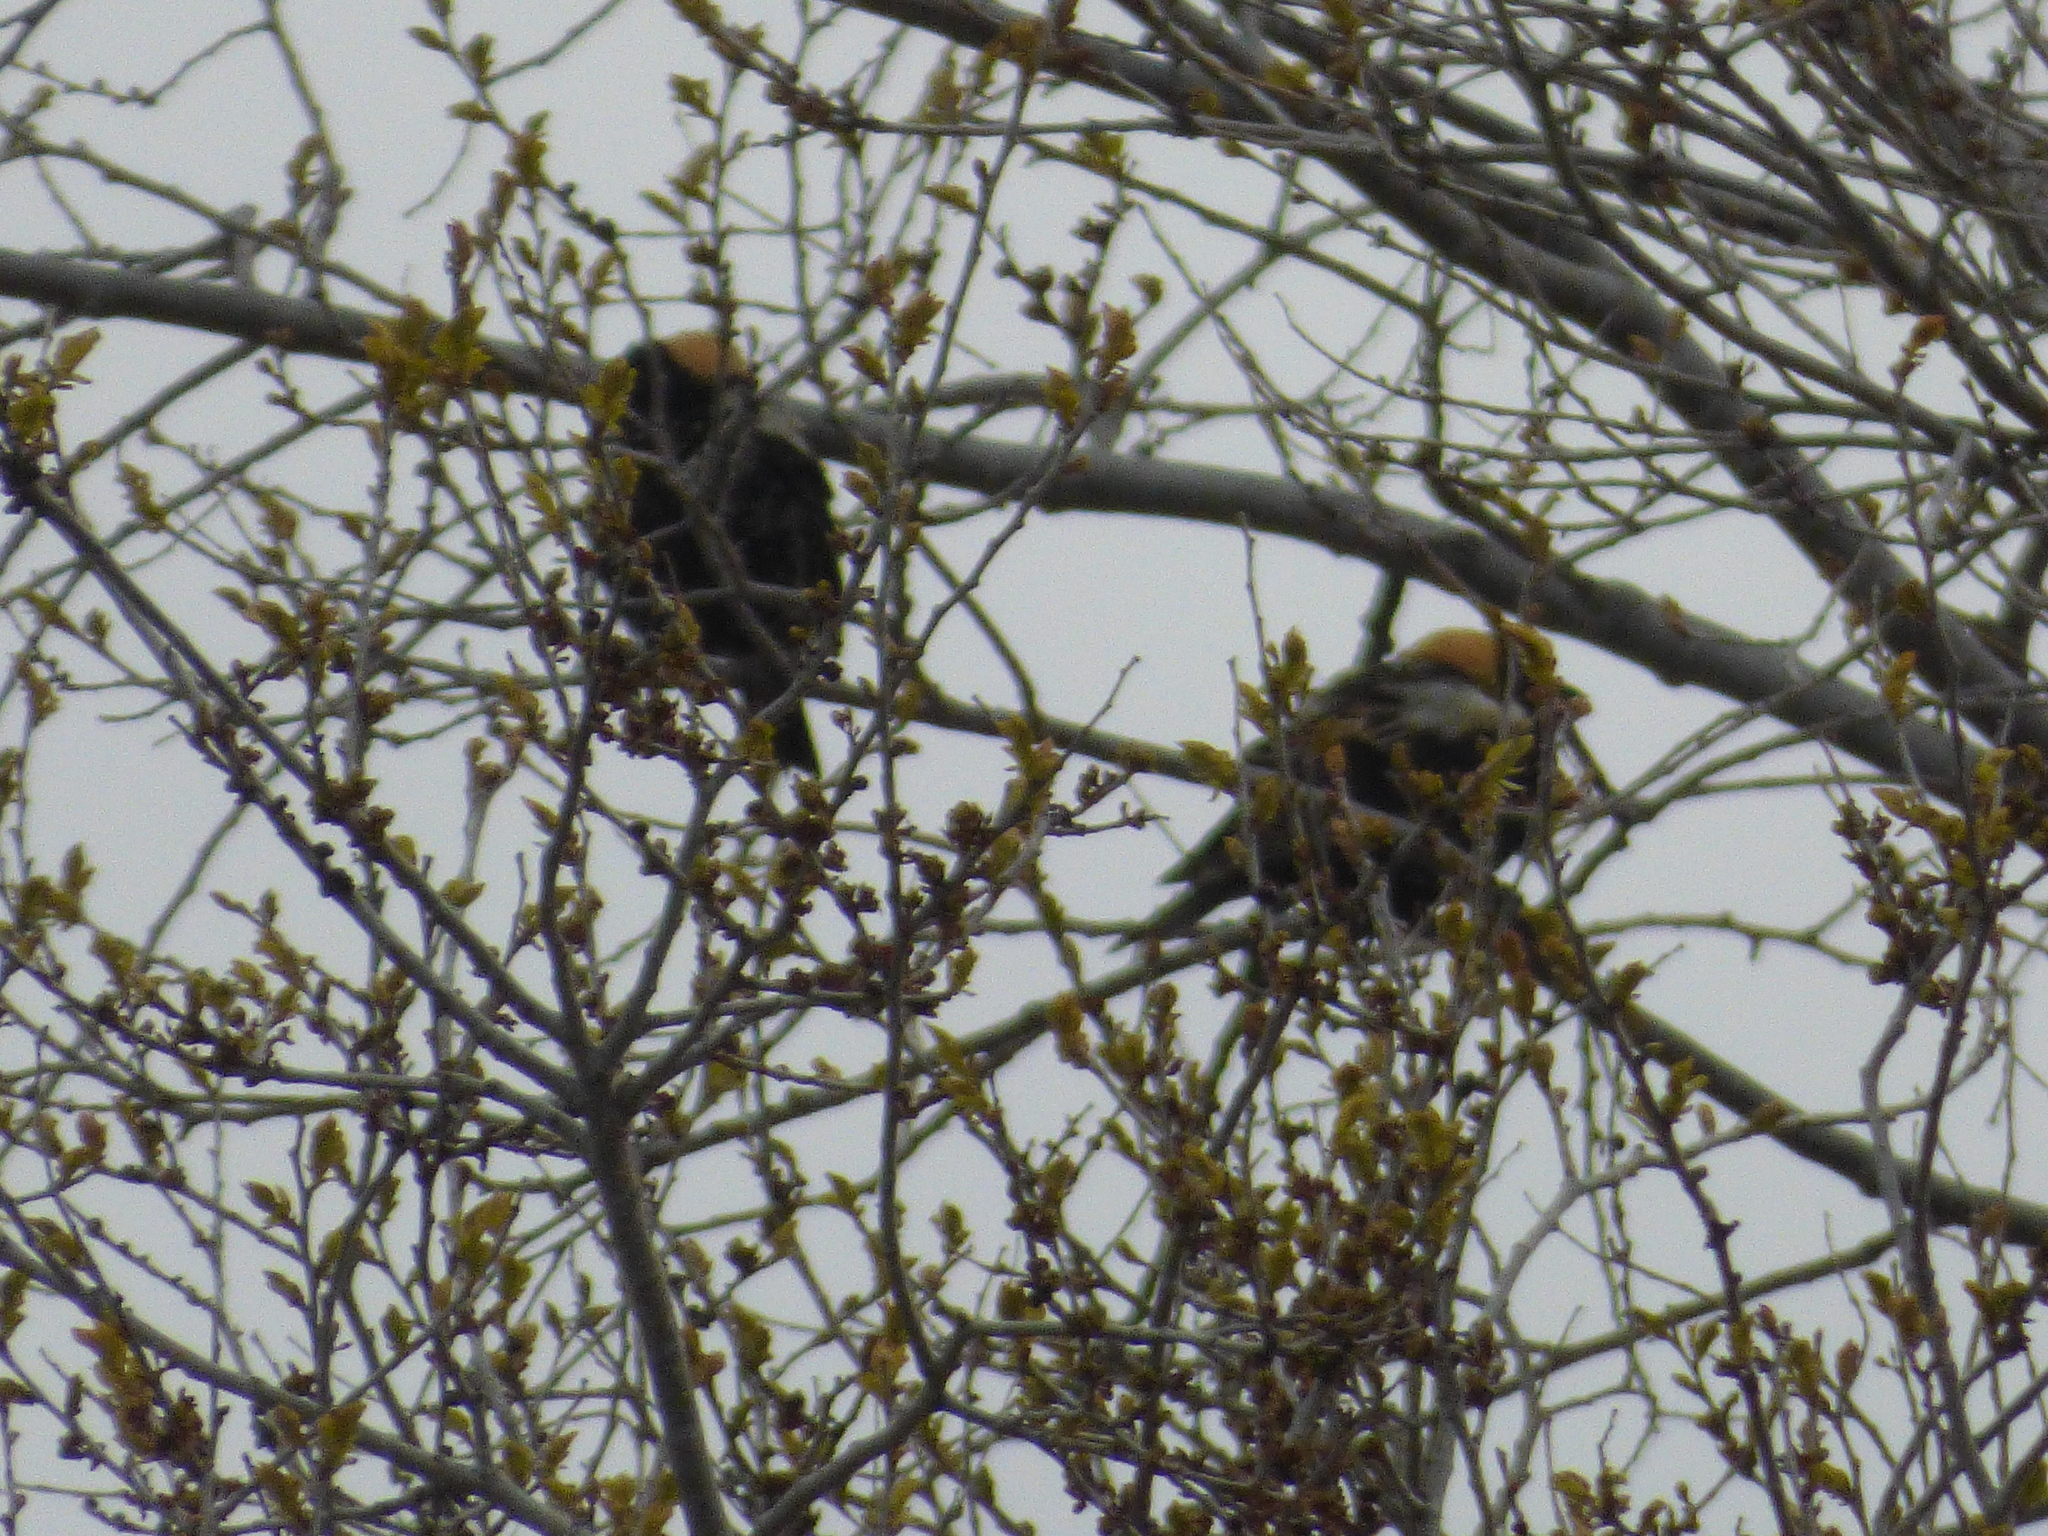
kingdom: Animalia
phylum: Chordata
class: Aves
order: Passeriformes
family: Icteridae
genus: Dolichonyx
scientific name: Dolichonyx oryzivorus
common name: Bobolink
